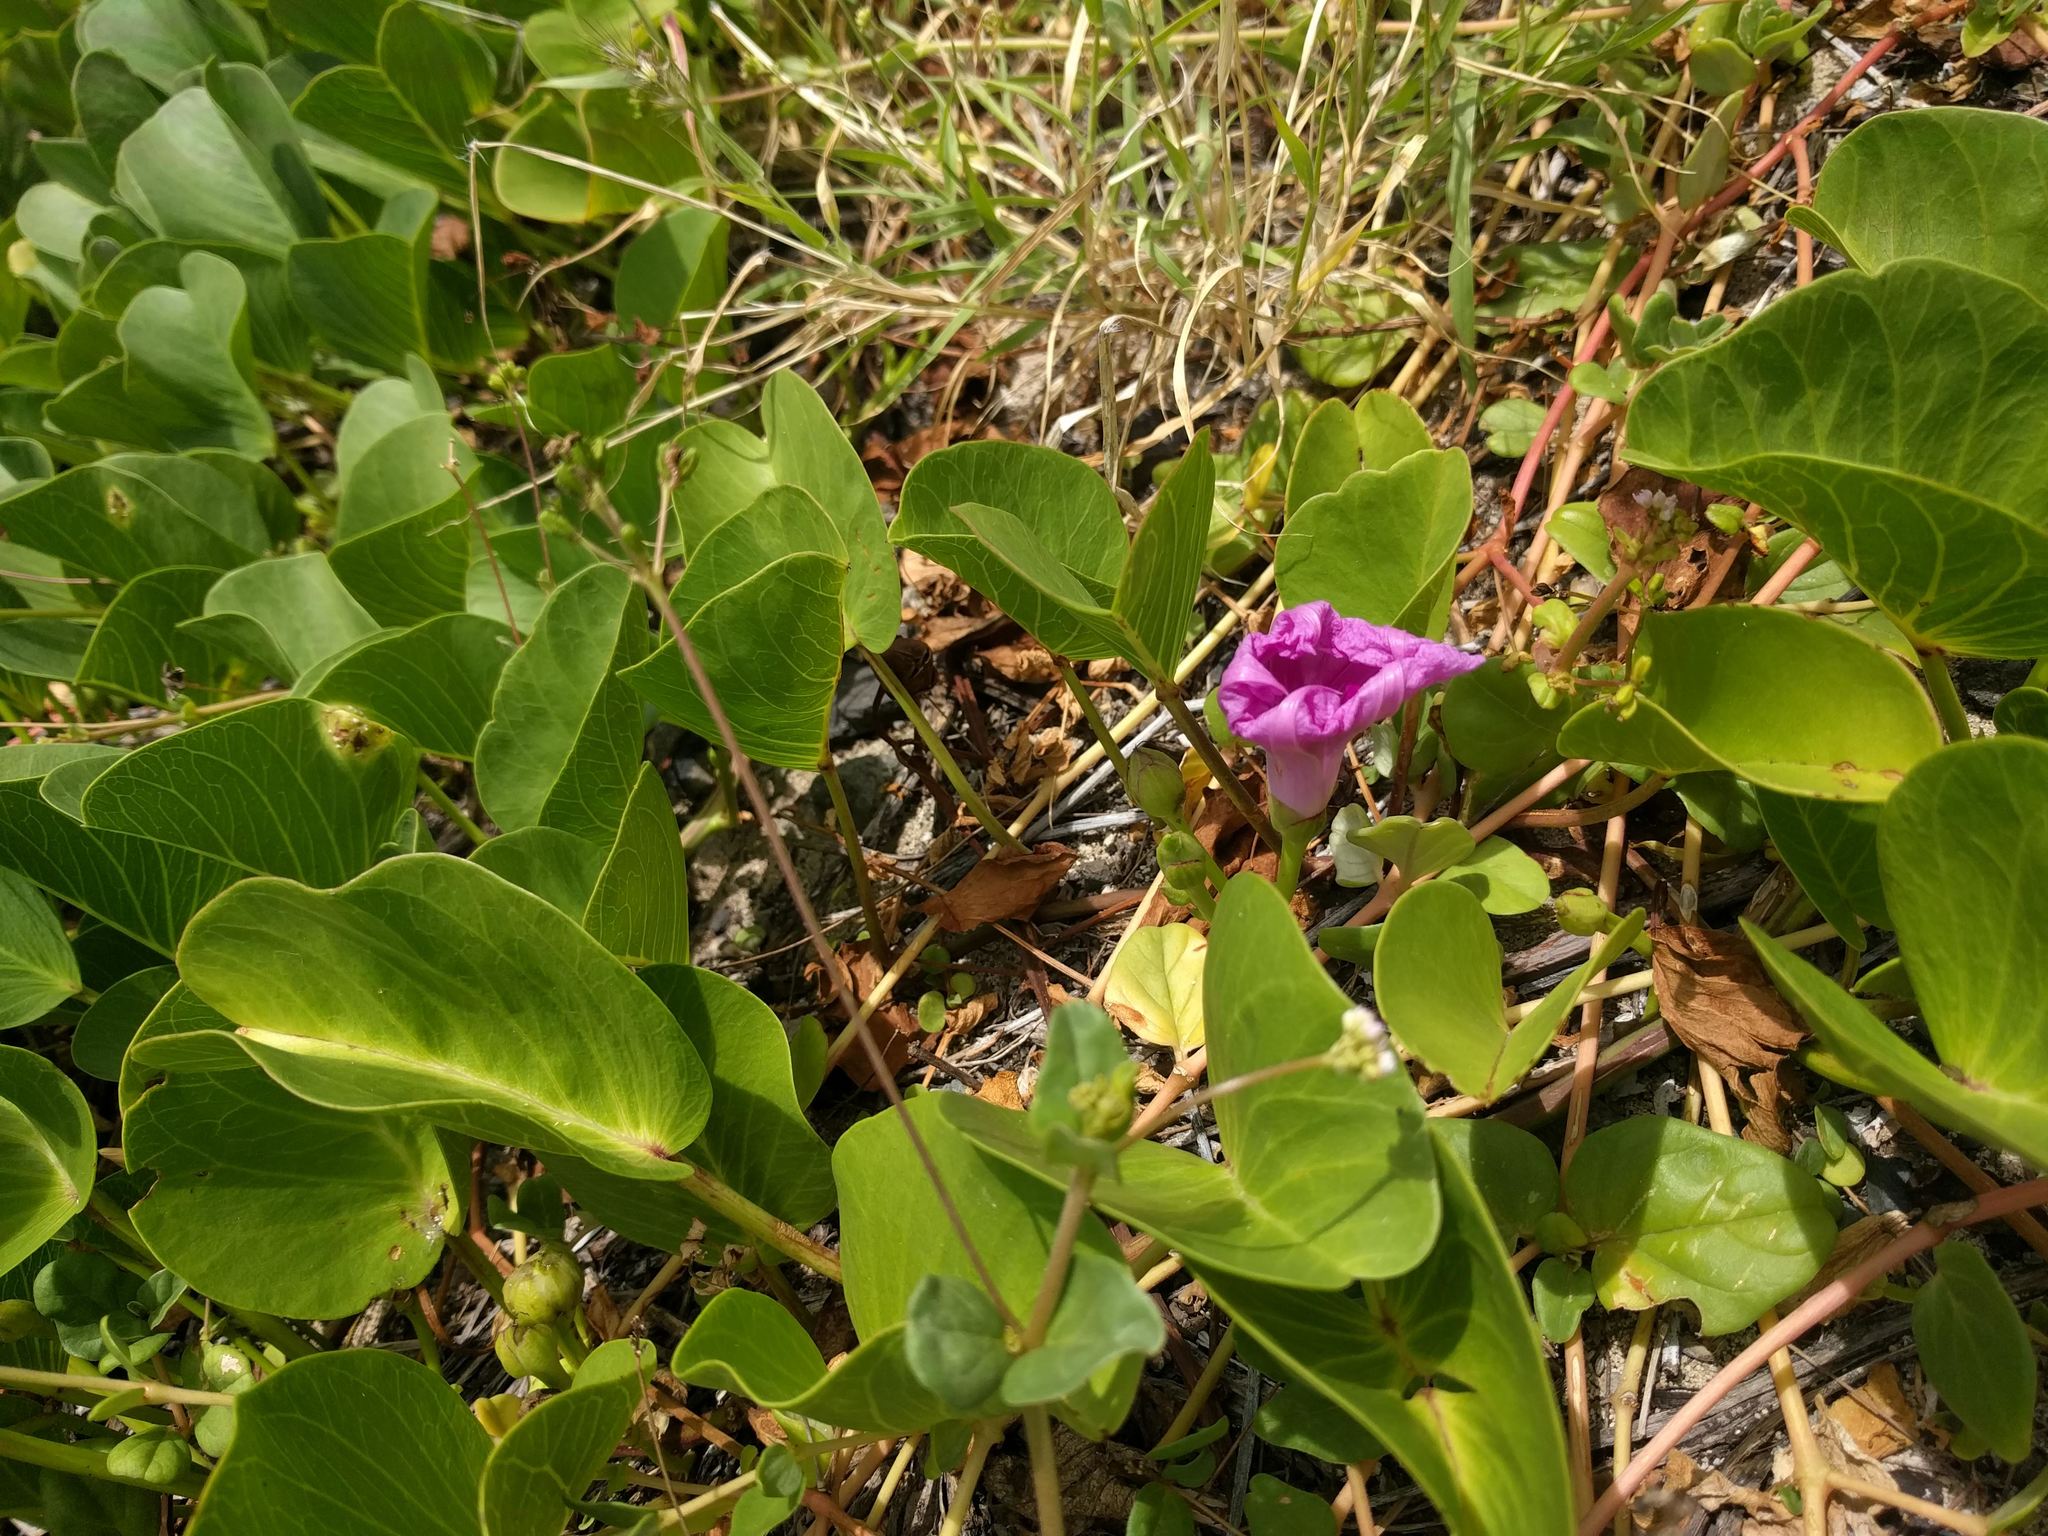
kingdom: Plantae
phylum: Tracheophyta
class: Magnoliopsida
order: Solanales
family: Convolvulaceae
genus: Ipomoea
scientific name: Ipomoea pes-caprae
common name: Beach morning glory
